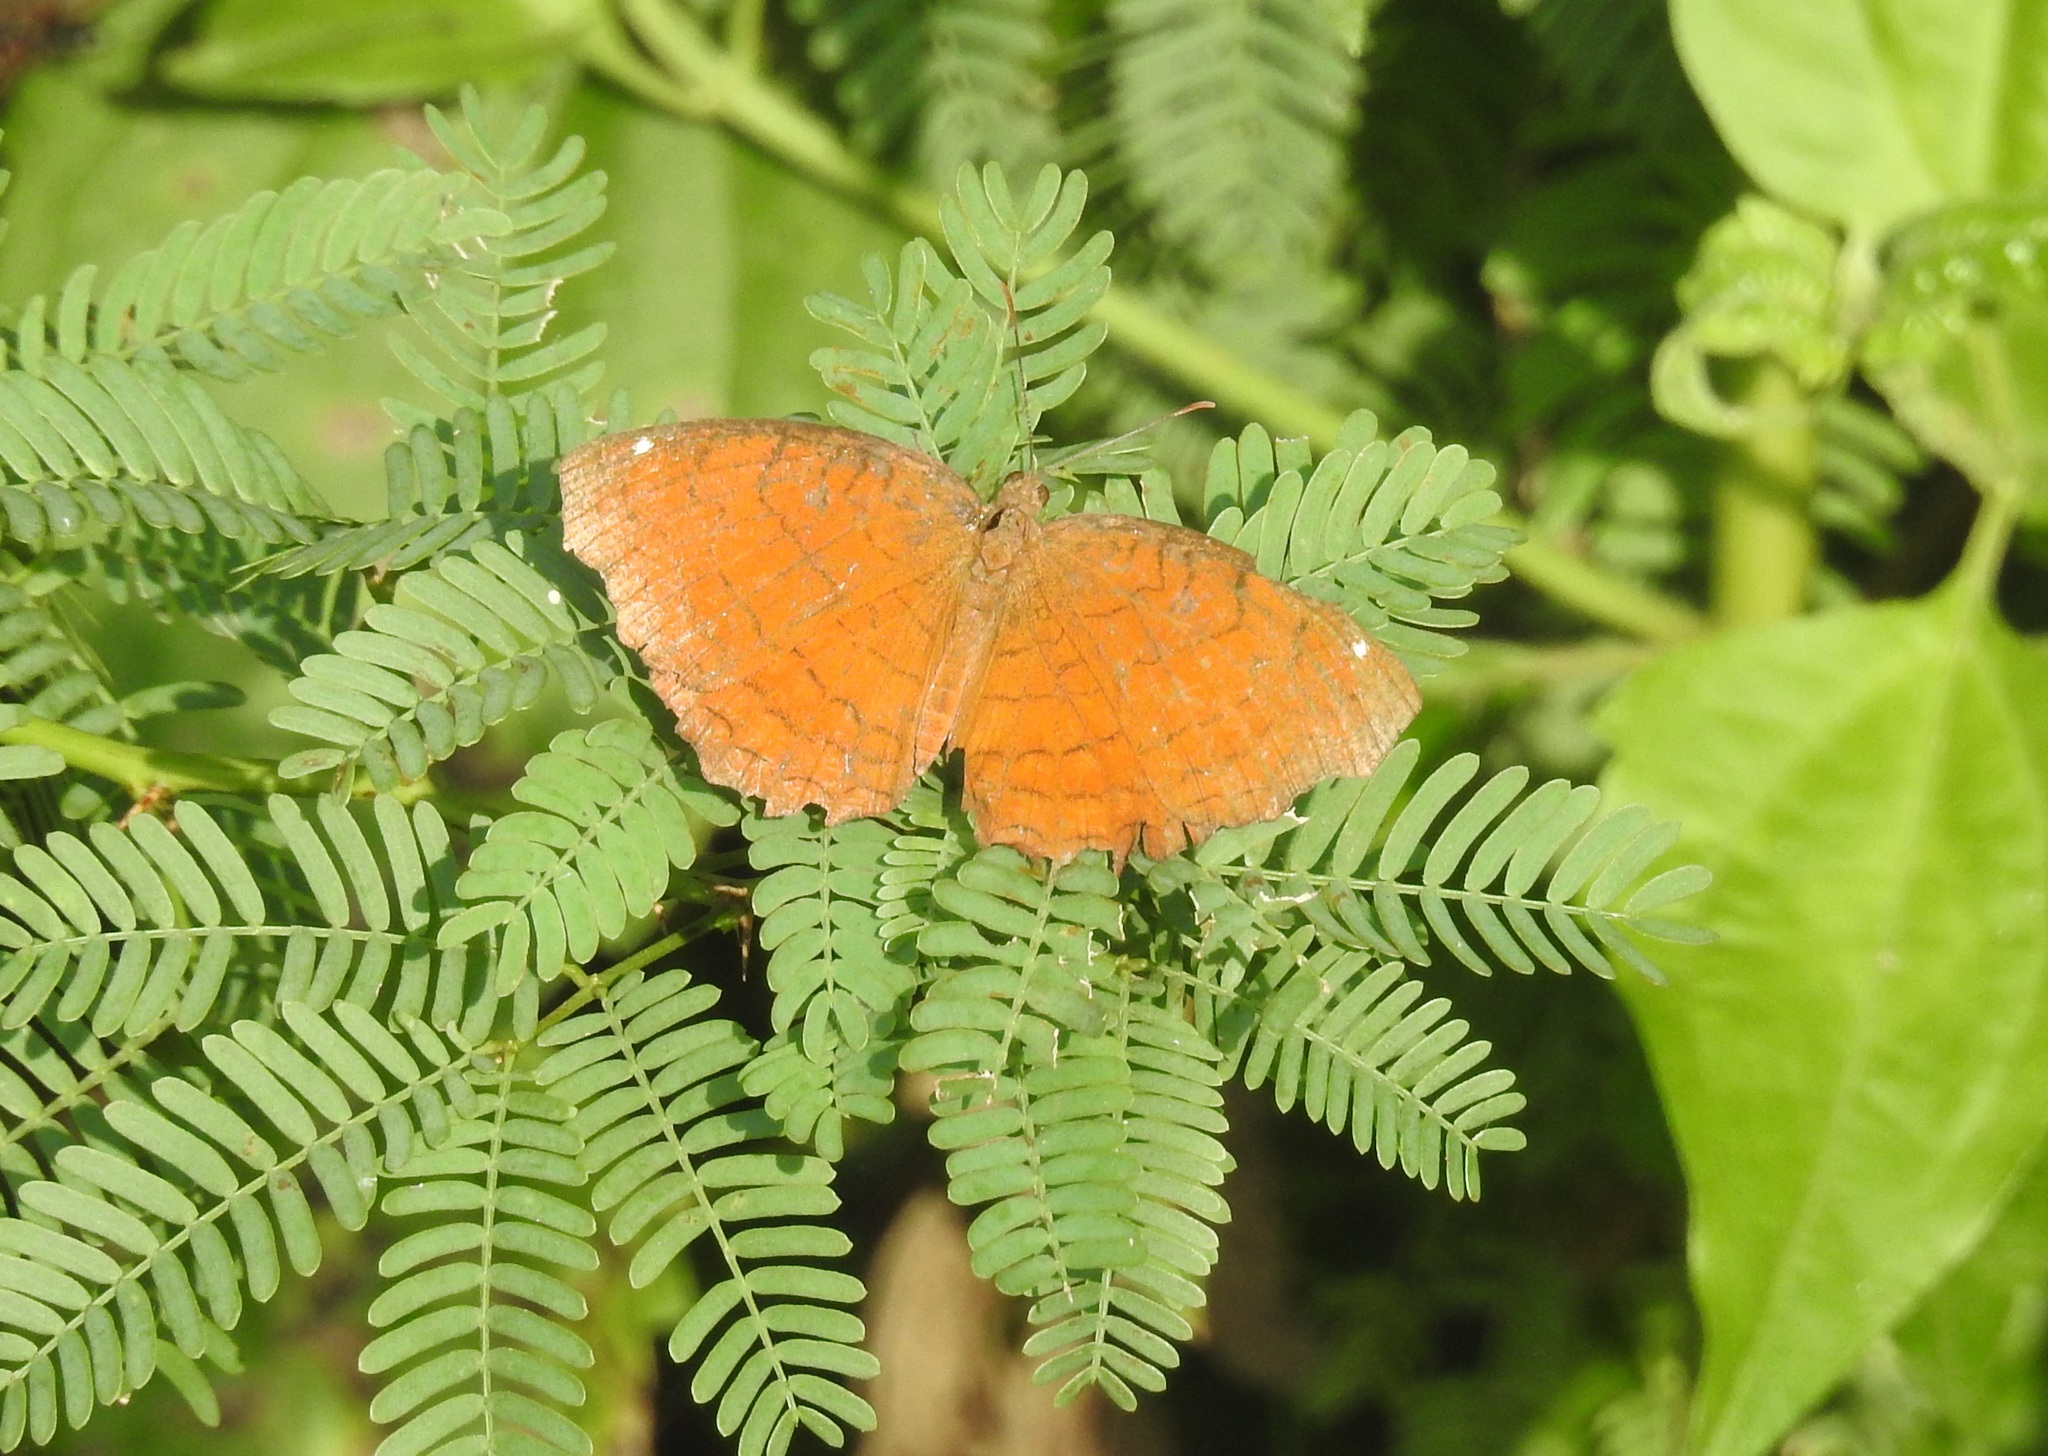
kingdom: Animalia
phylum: Arthropoda
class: Insecta
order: Lepidoptera
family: Nymphalidae
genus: Ariadne
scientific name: Ariadne ariadne
